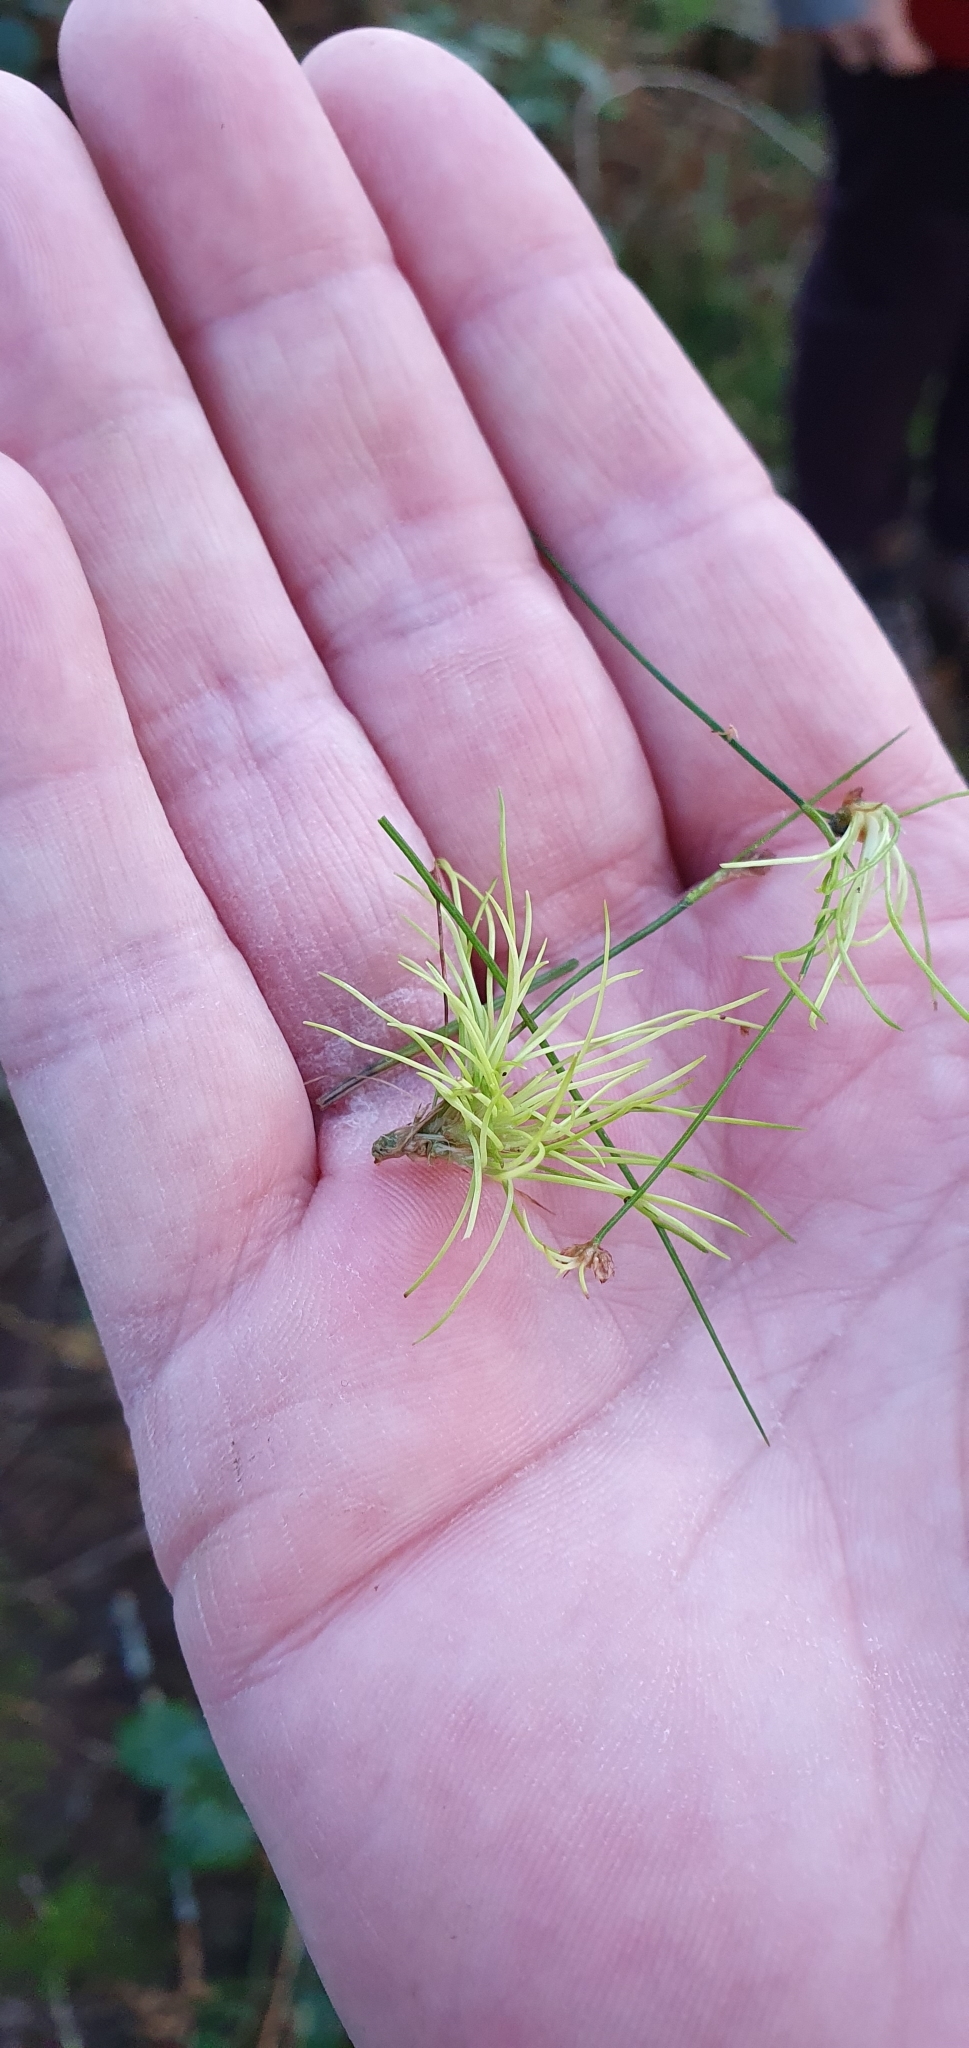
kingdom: Plantae
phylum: Tracheophyta
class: Liliopsida
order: Poales
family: Juncaceae
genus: Juncus
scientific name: Juncus bulbosus
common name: Bulbous rush
